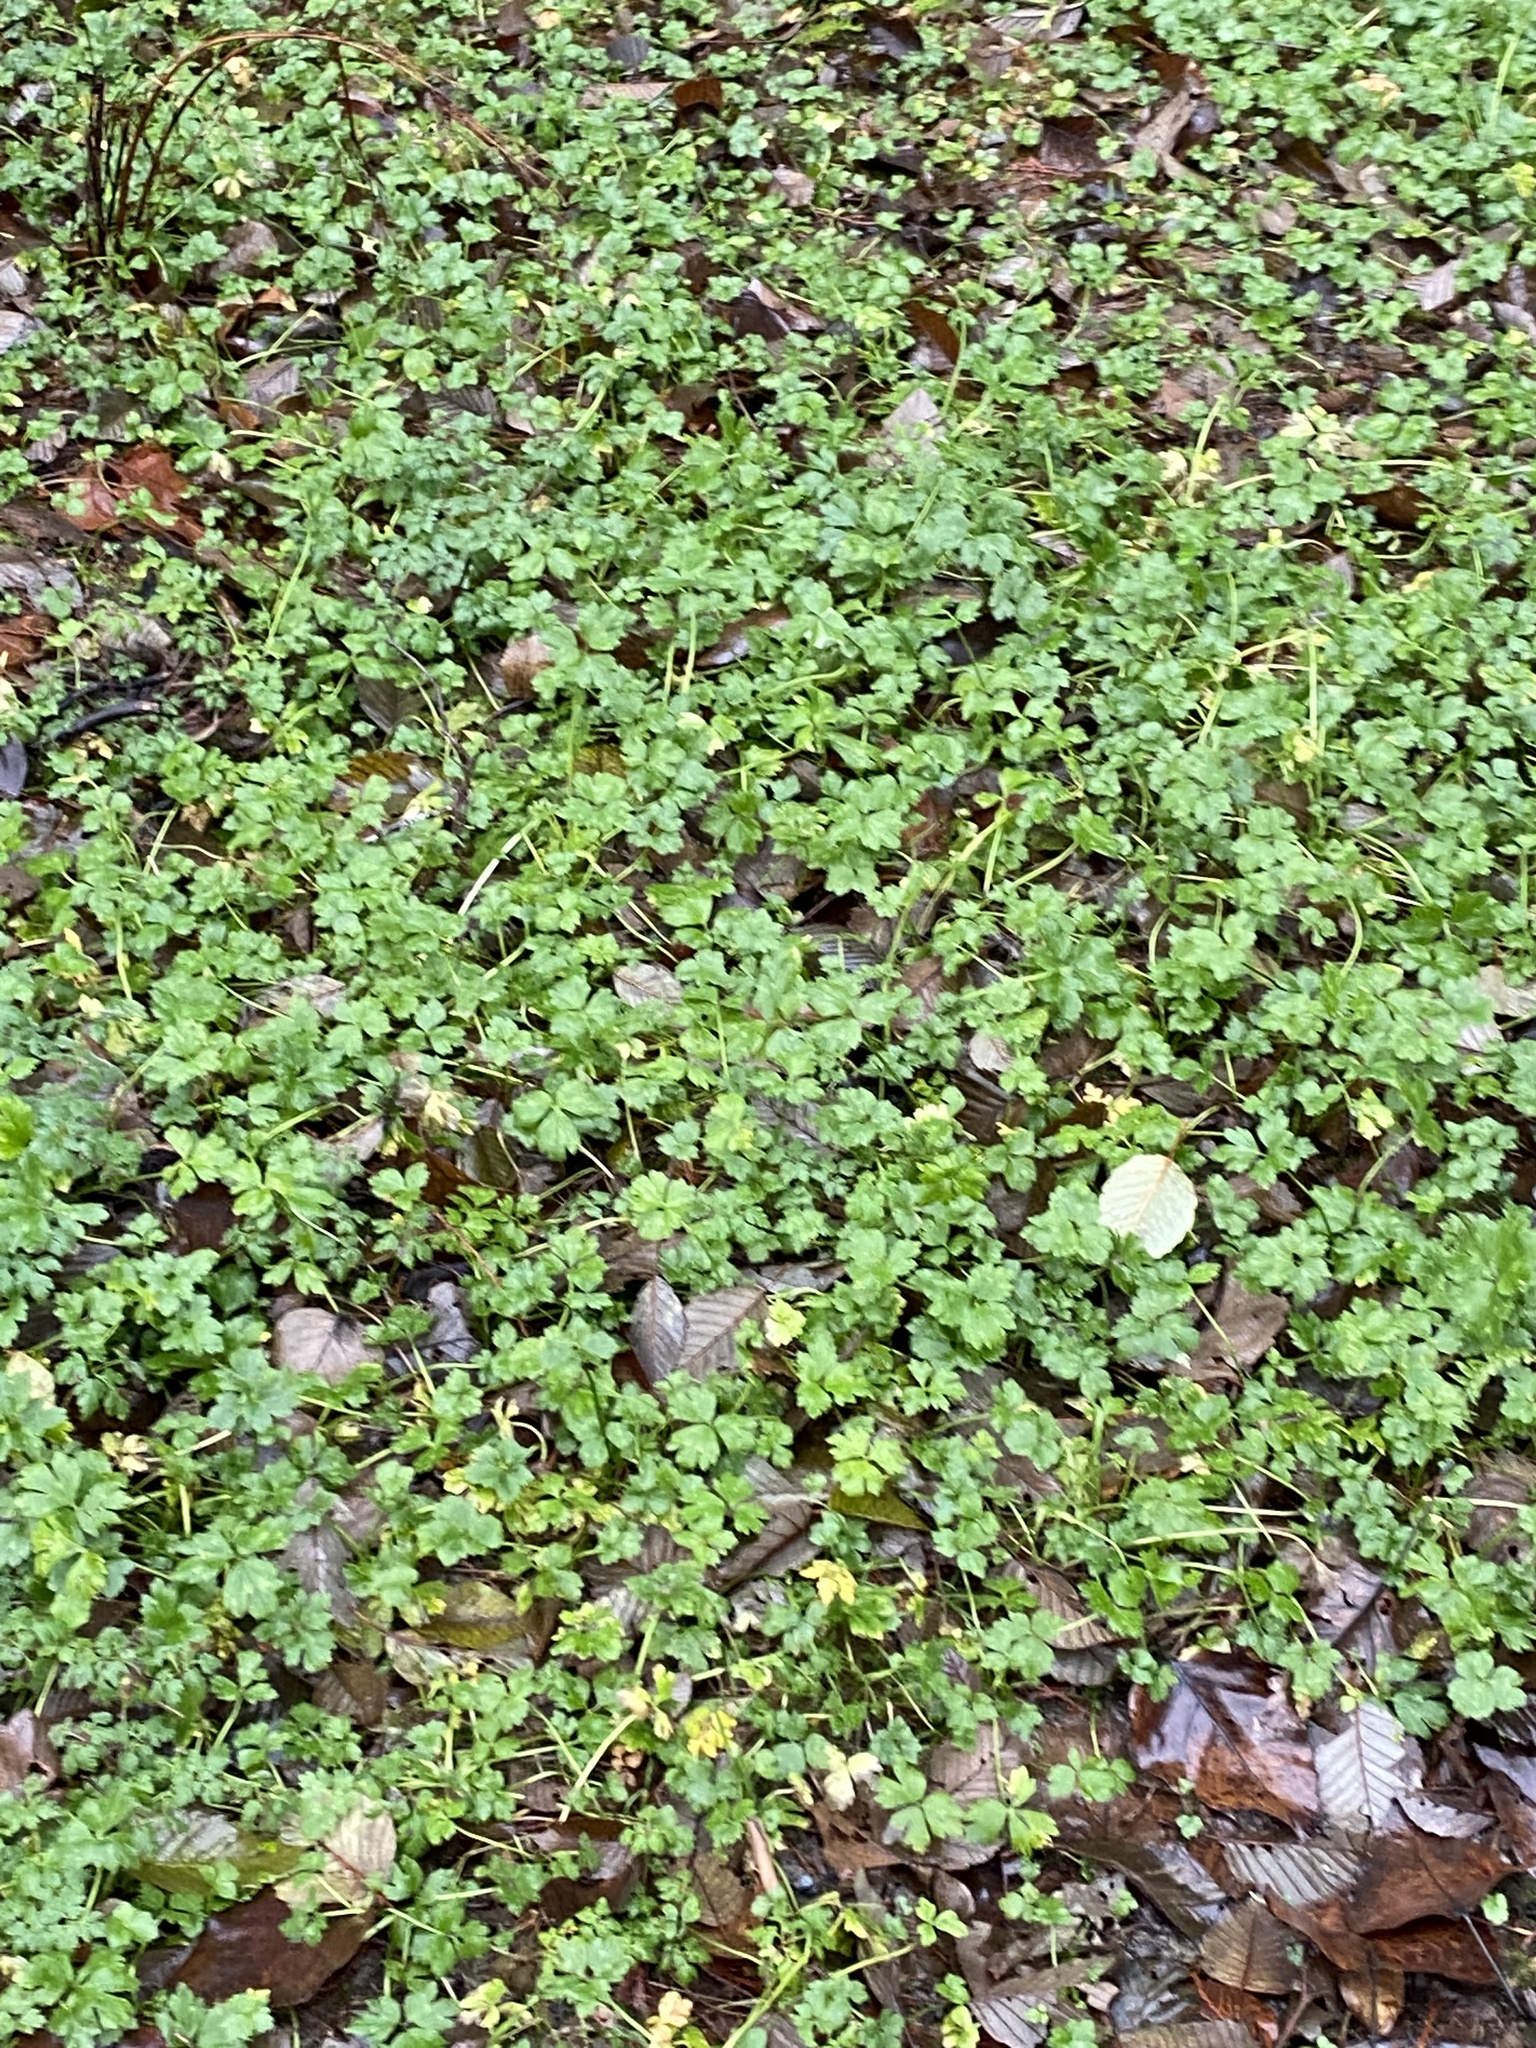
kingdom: Plantae
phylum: Tracheophyta
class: Magnoliopsida
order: Ranunculales
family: Ranunculaceae
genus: Ranunculus
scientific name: Ranunculus repens
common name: Creeping buttercup
